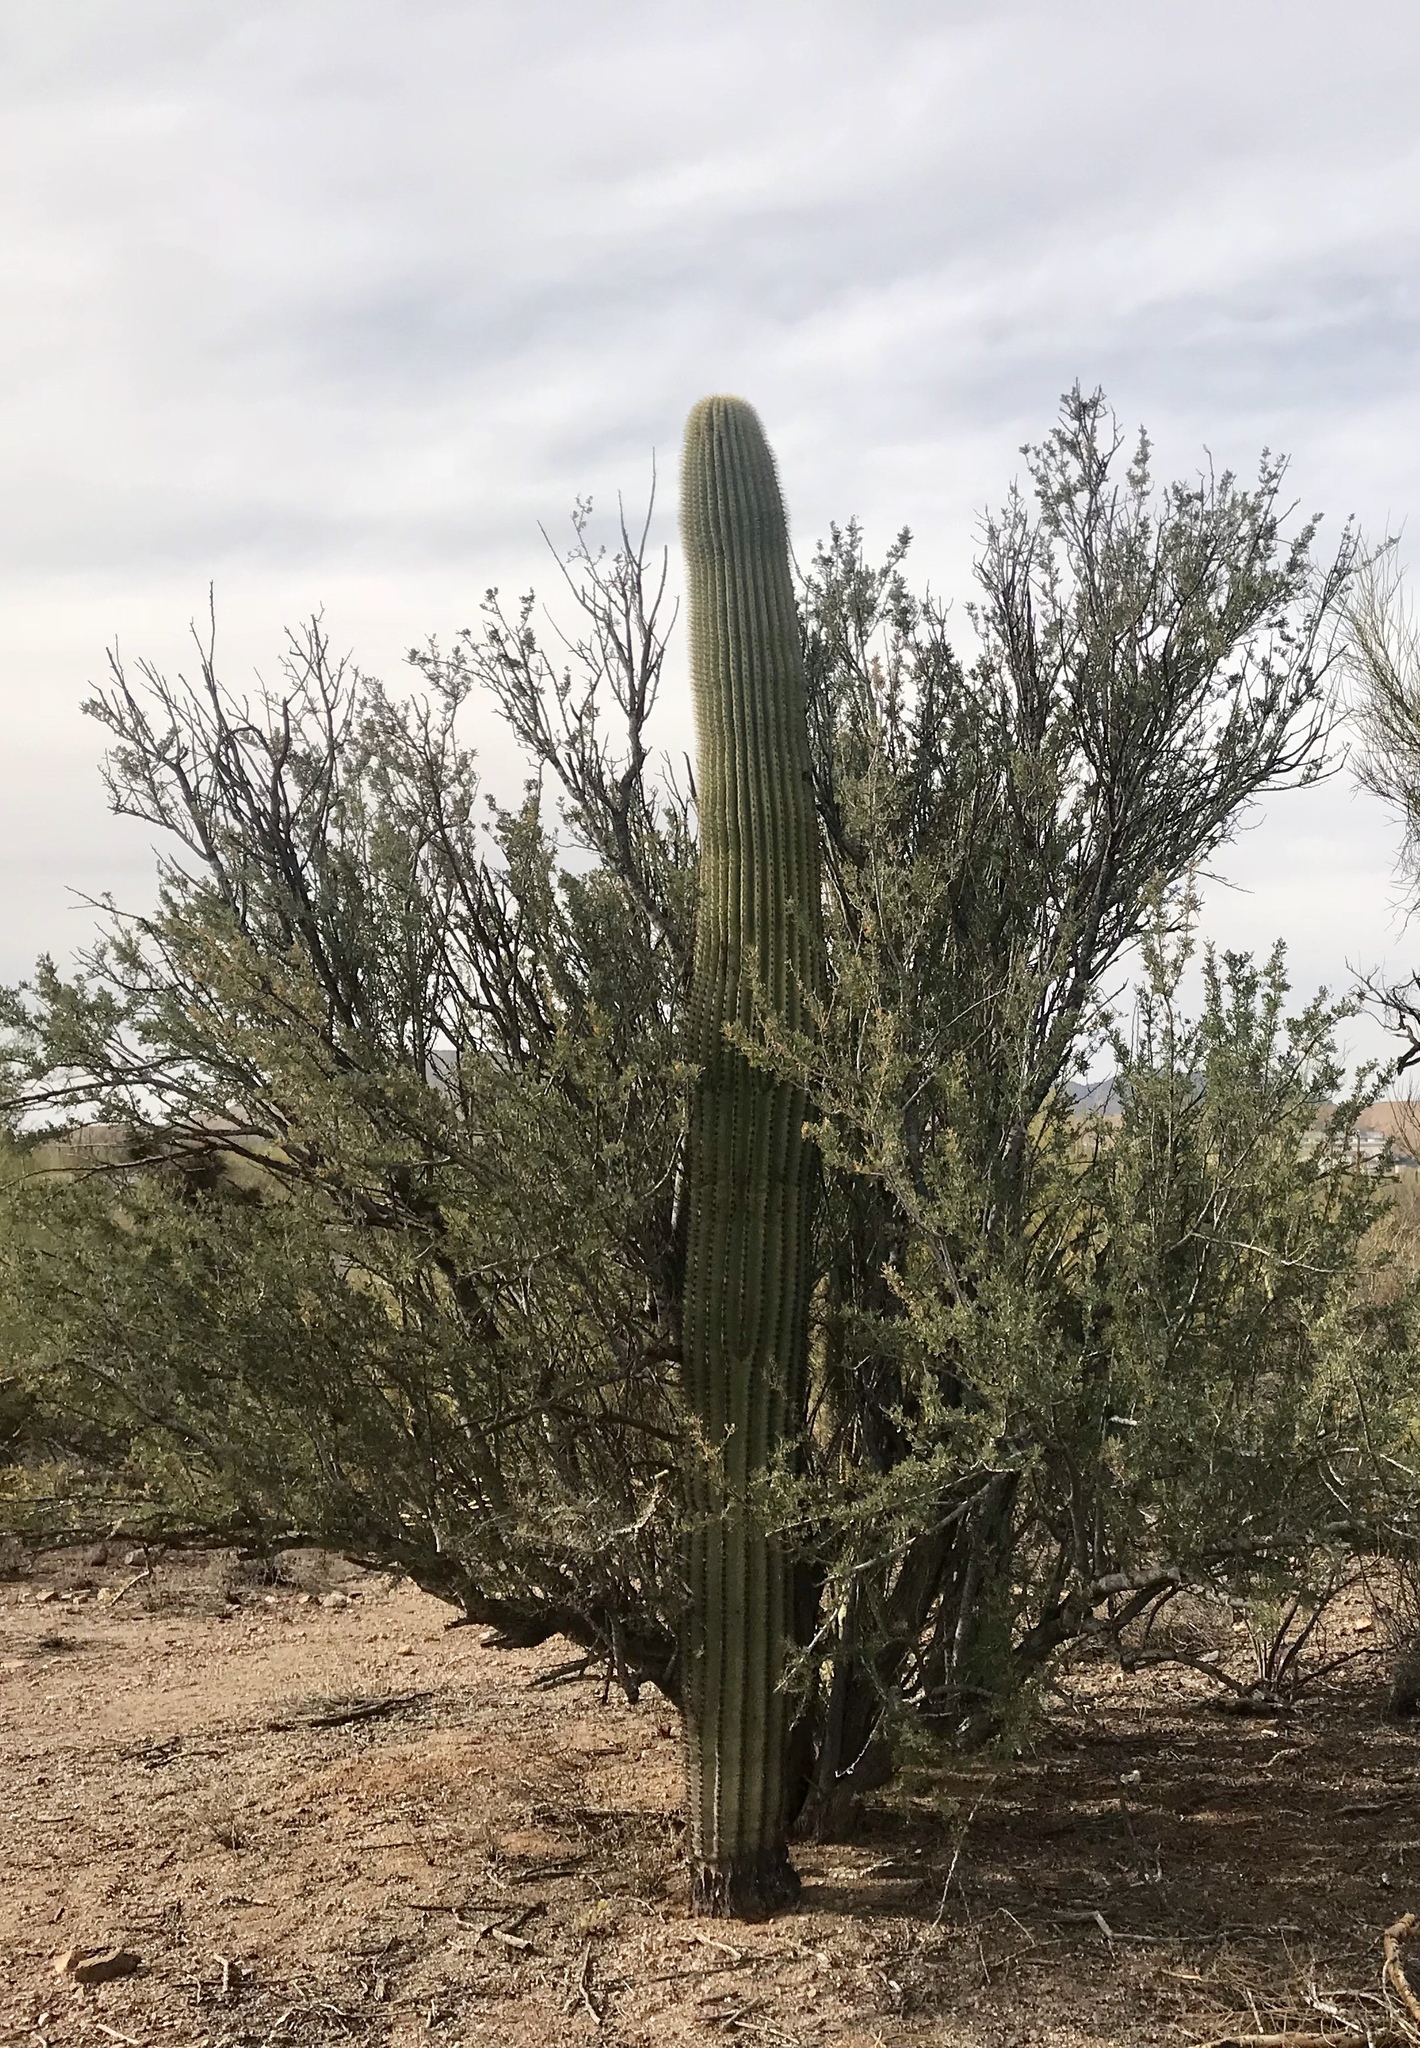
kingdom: Plantae
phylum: Tracheophyta
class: Magnoliopsida
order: Caryophyllales
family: Cactaceae
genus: Carnegiea
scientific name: Carnegiea gigantea
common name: Saguaro
